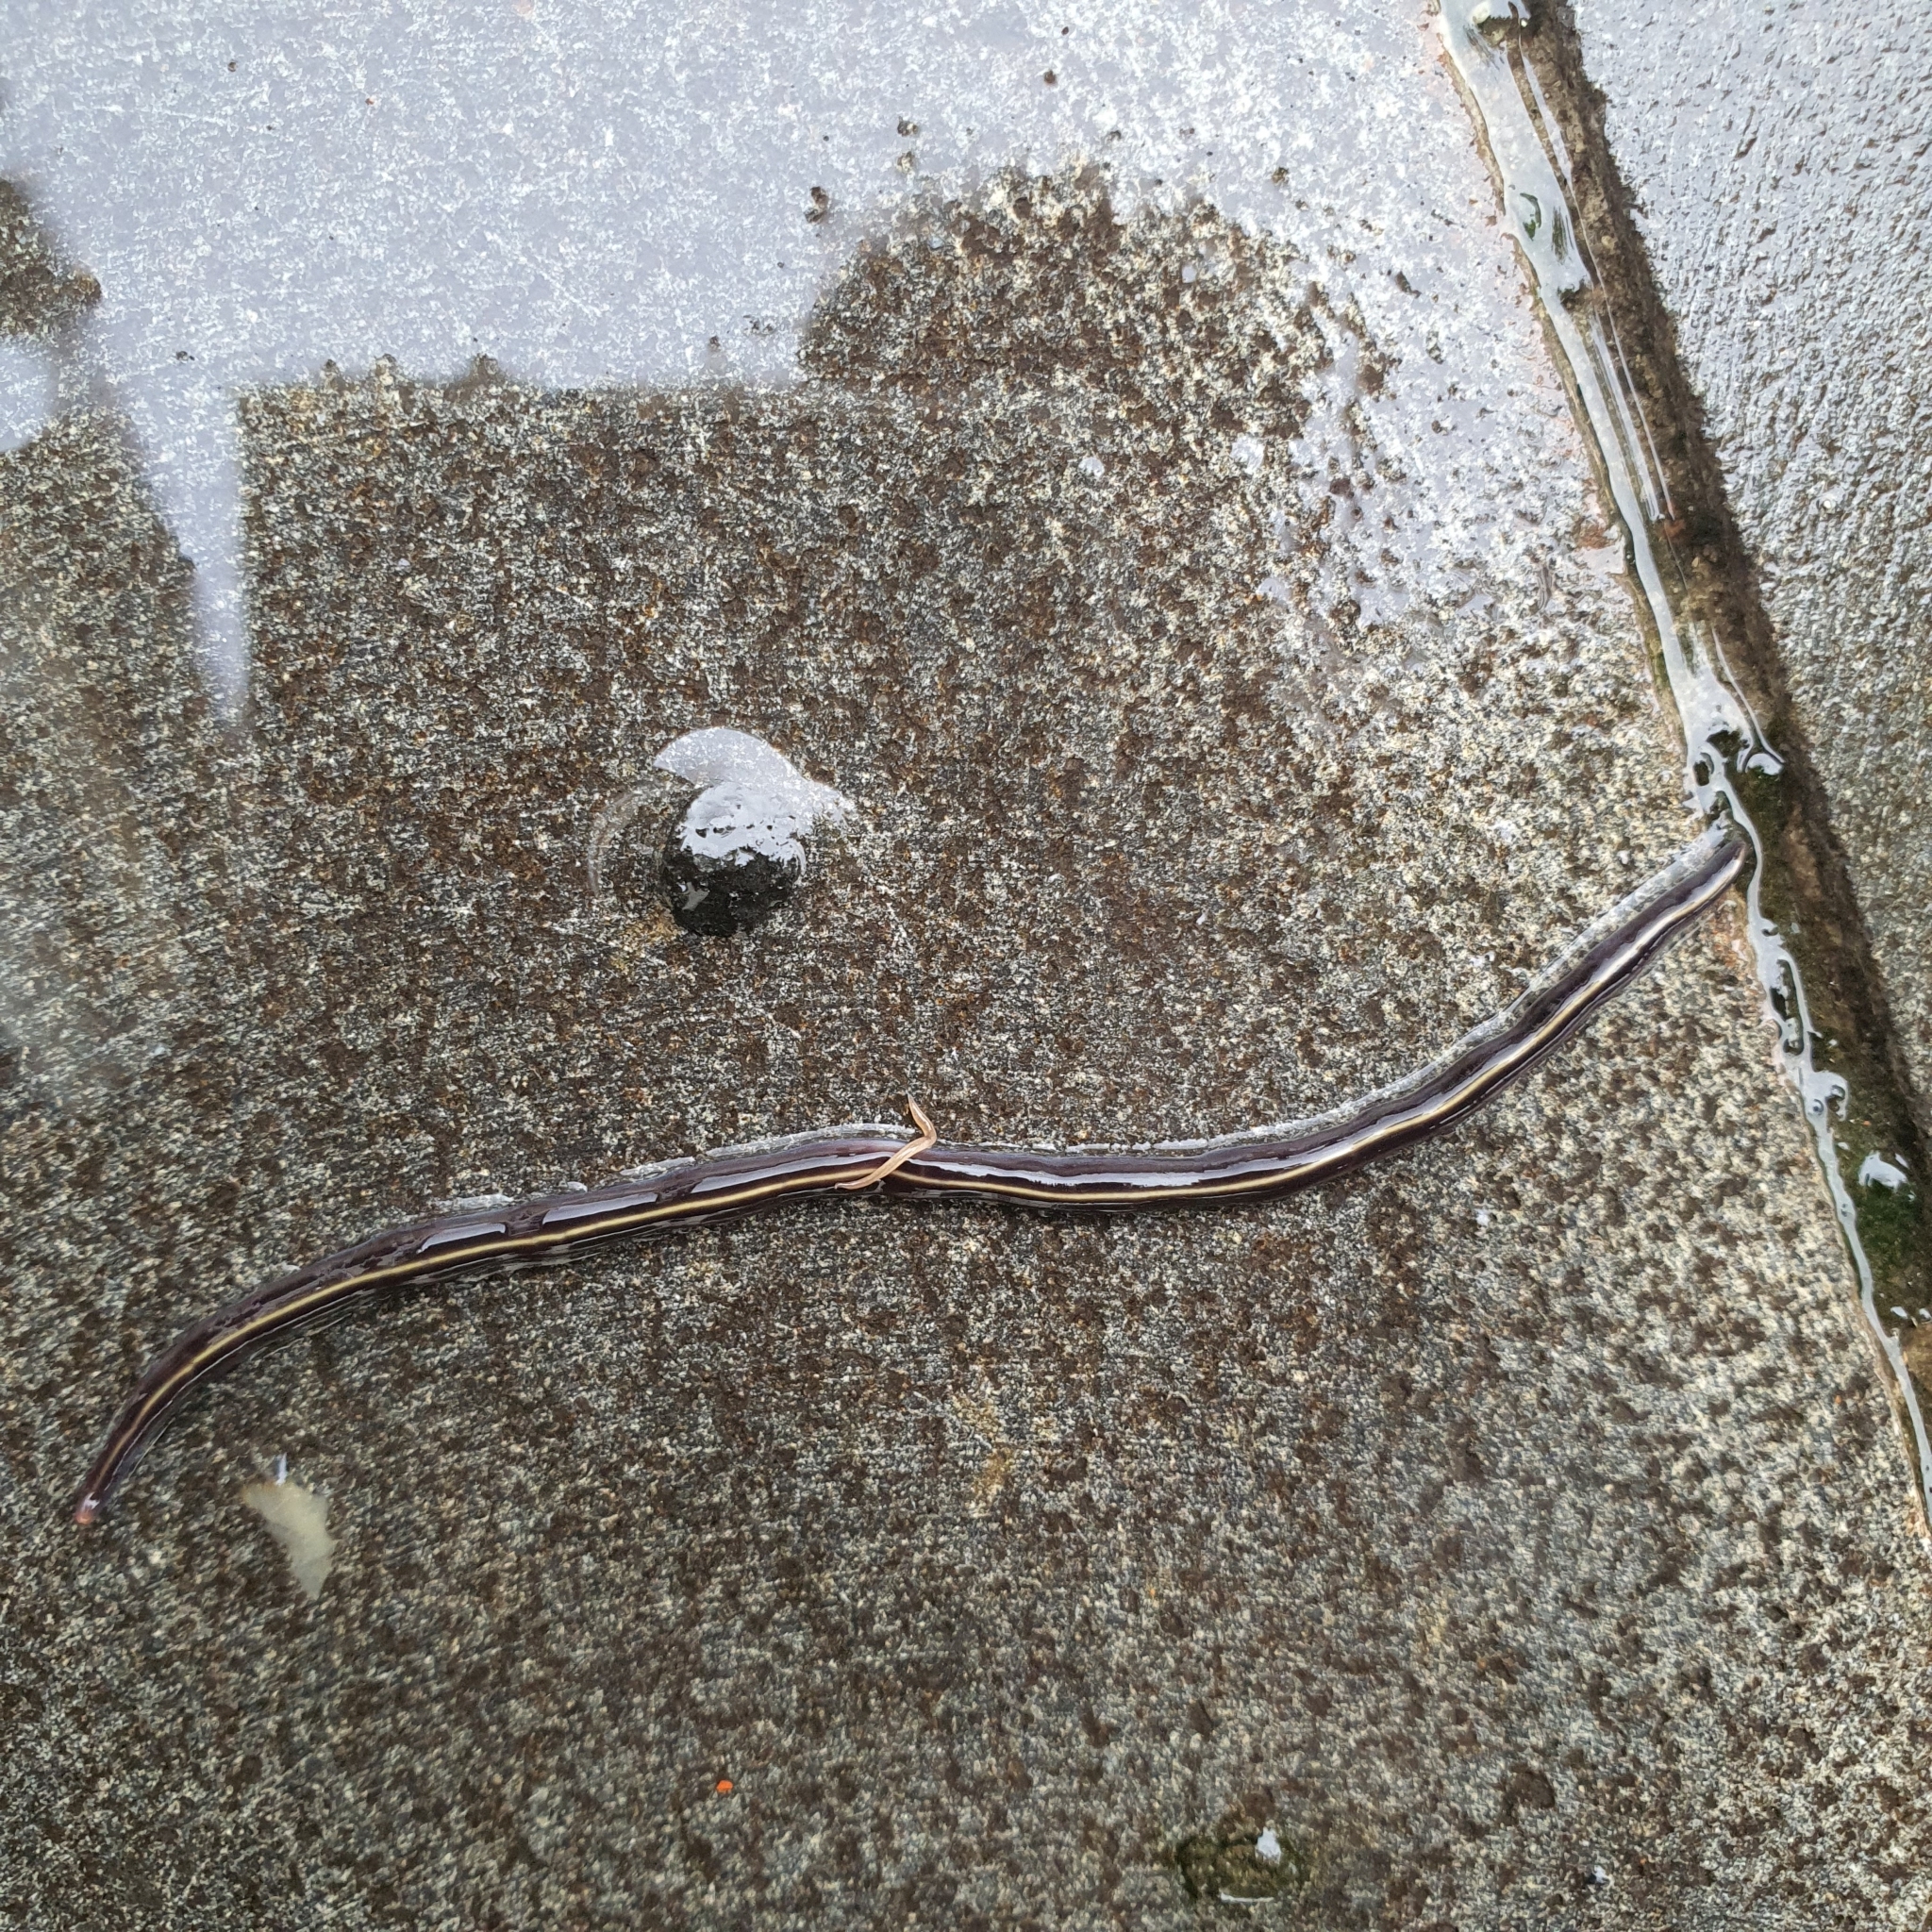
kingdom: Animalia
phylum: Platyhelminthes
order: Tricladida
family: Geoplanidae
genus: Caenoplana
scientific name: Caenoplana coerulea
